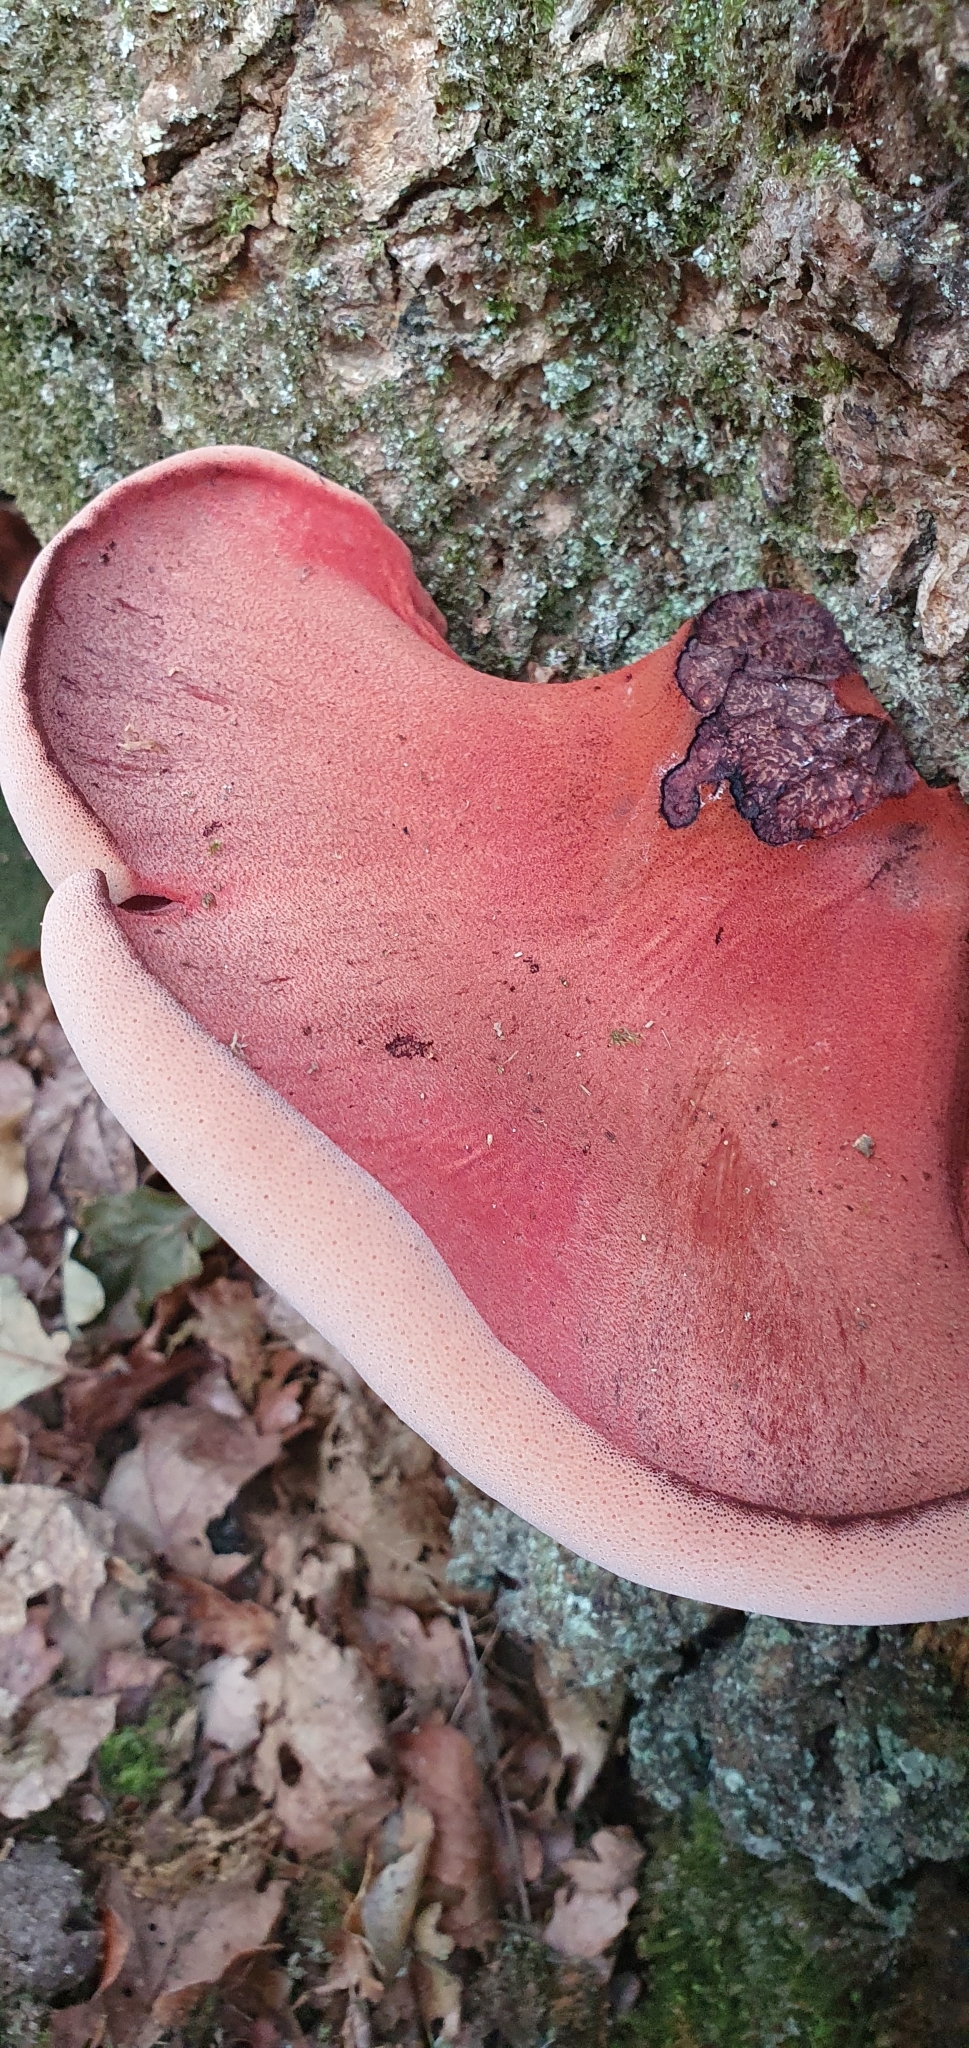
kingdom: Fungi
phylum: Basidiomycota
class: Agaricomycetes
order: Agaricales
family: Fistulinaceae
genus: Fistulina
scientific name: Fistulina hepatica
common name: Beef-steak fungus
